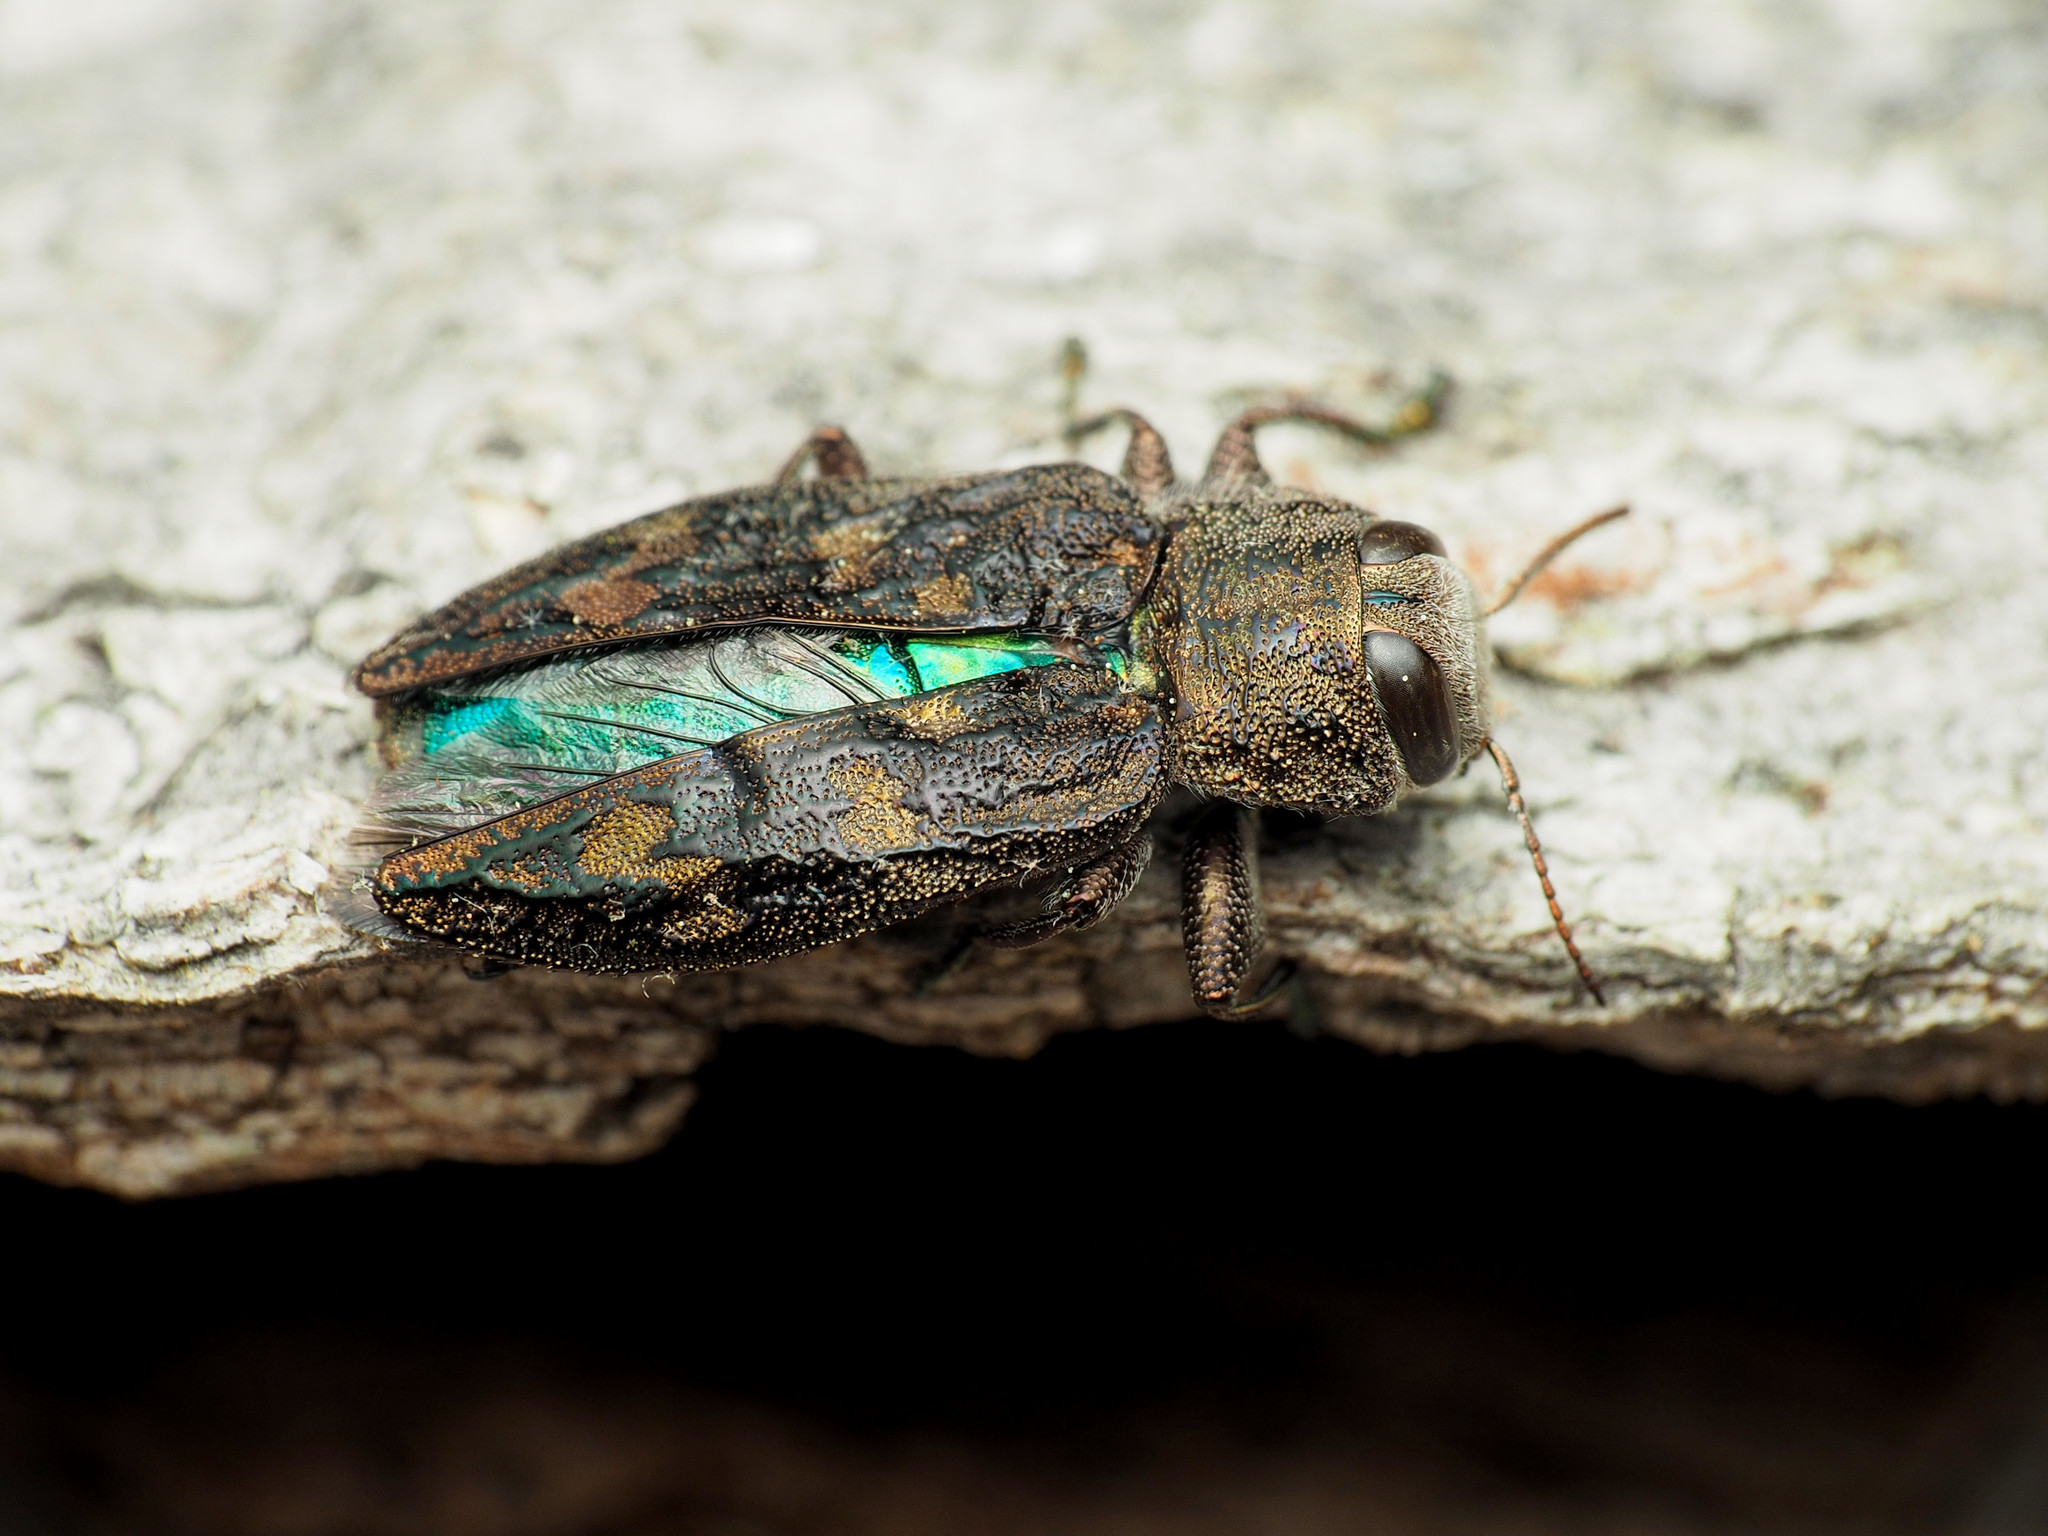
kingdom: Animalia
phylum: Arthropoda
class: Insecta
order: Coleoptera
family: Buprestidae
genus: Chrysobothris
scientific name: Chrysobothris rugosiceps
